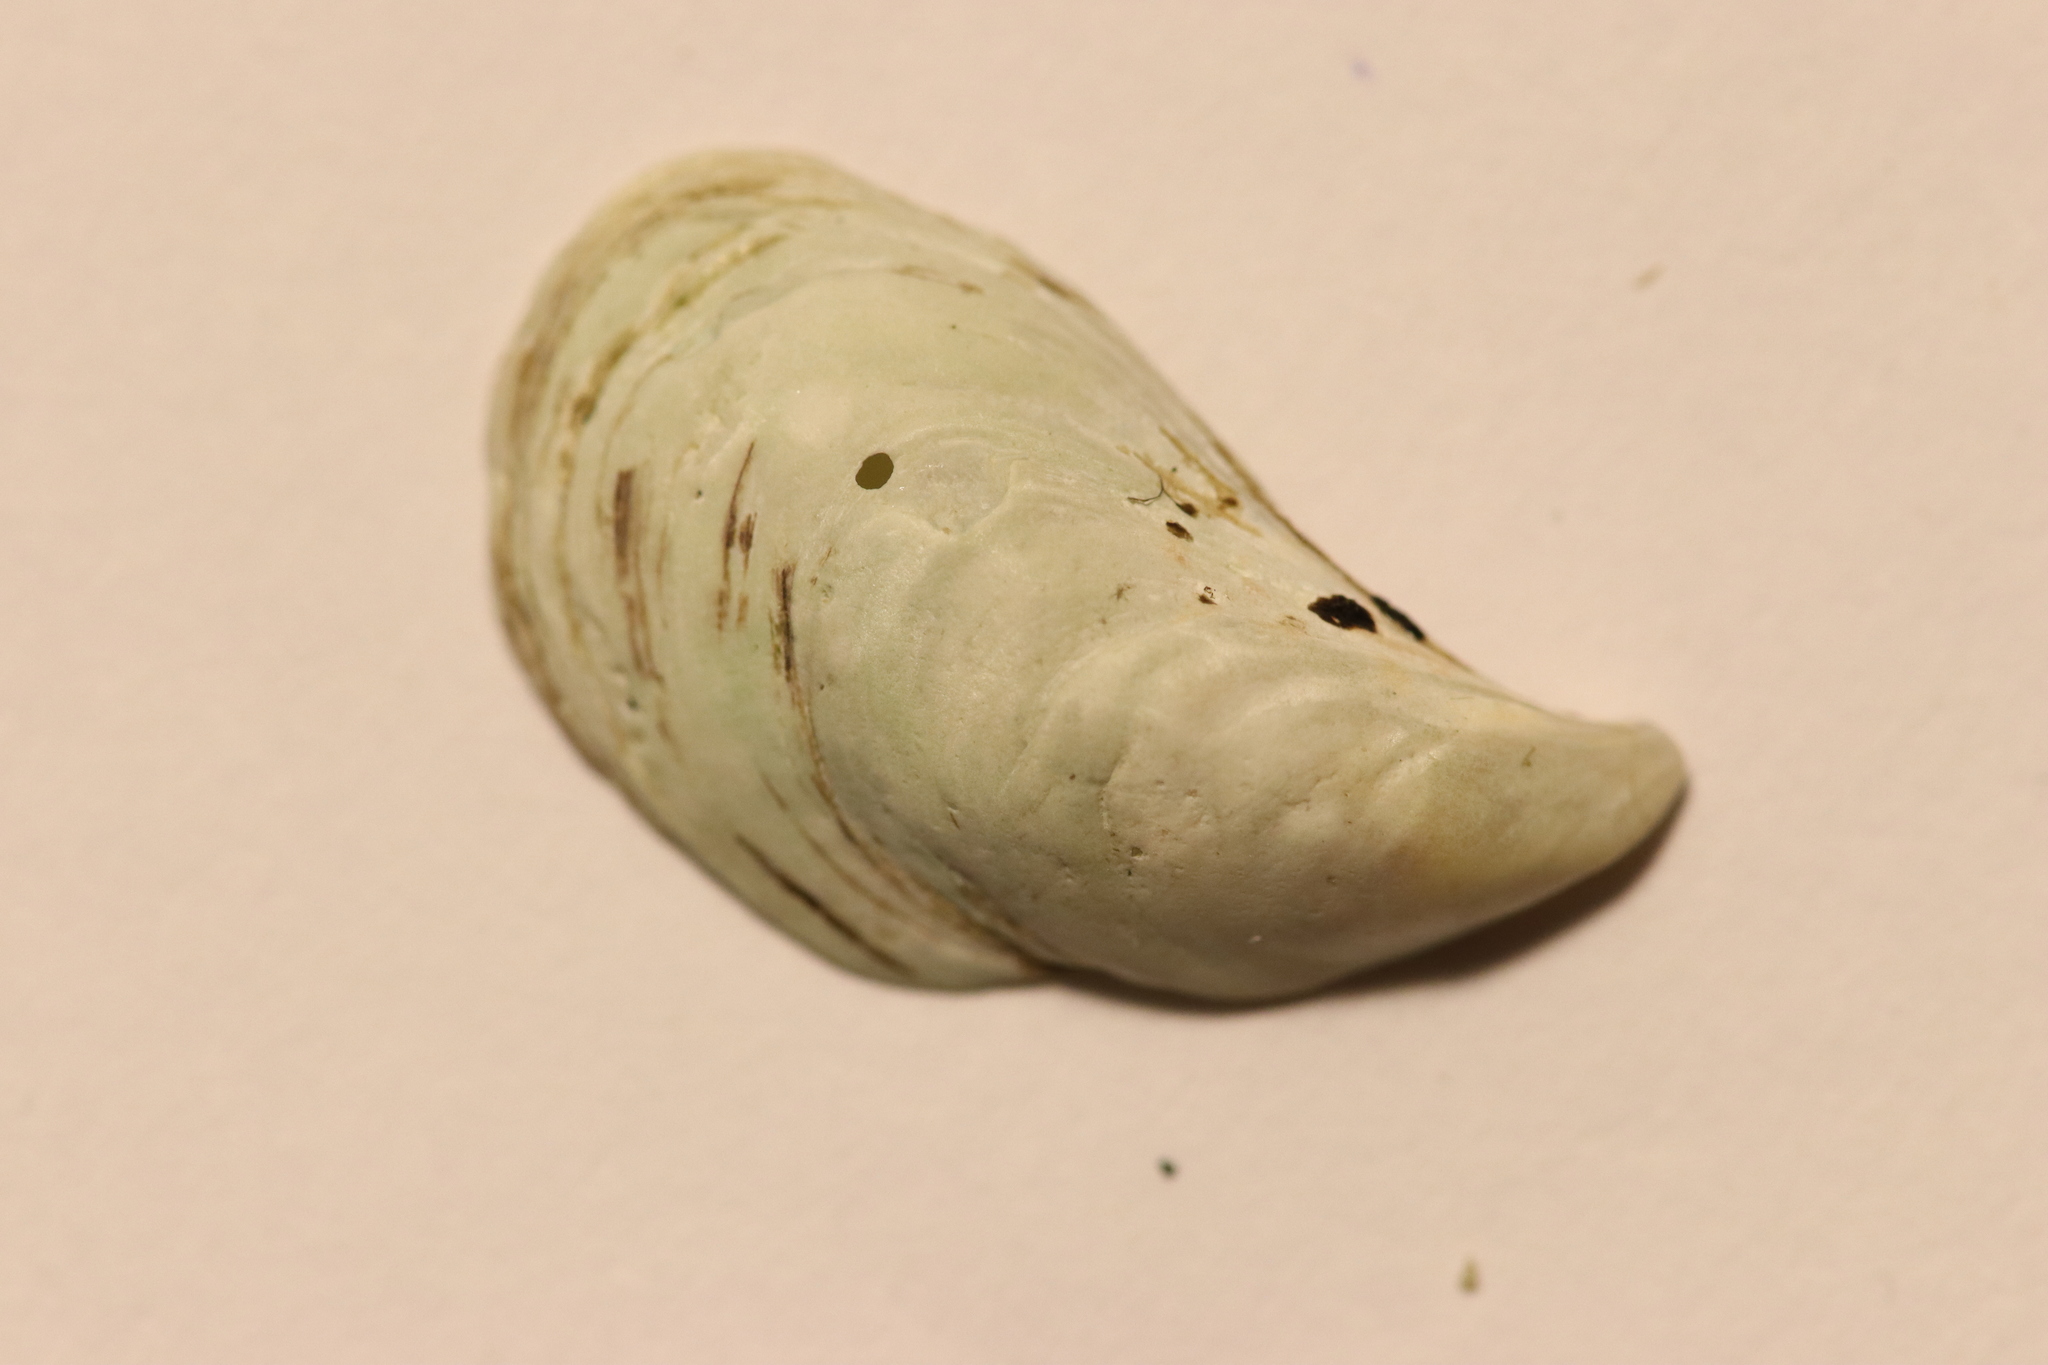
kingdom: Animalia
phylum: Mollusca
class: Bivalvia
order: Myida
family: Dreissenidae
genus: Dreissena
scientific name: Dreissena bugensis
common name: Quagga mussel
